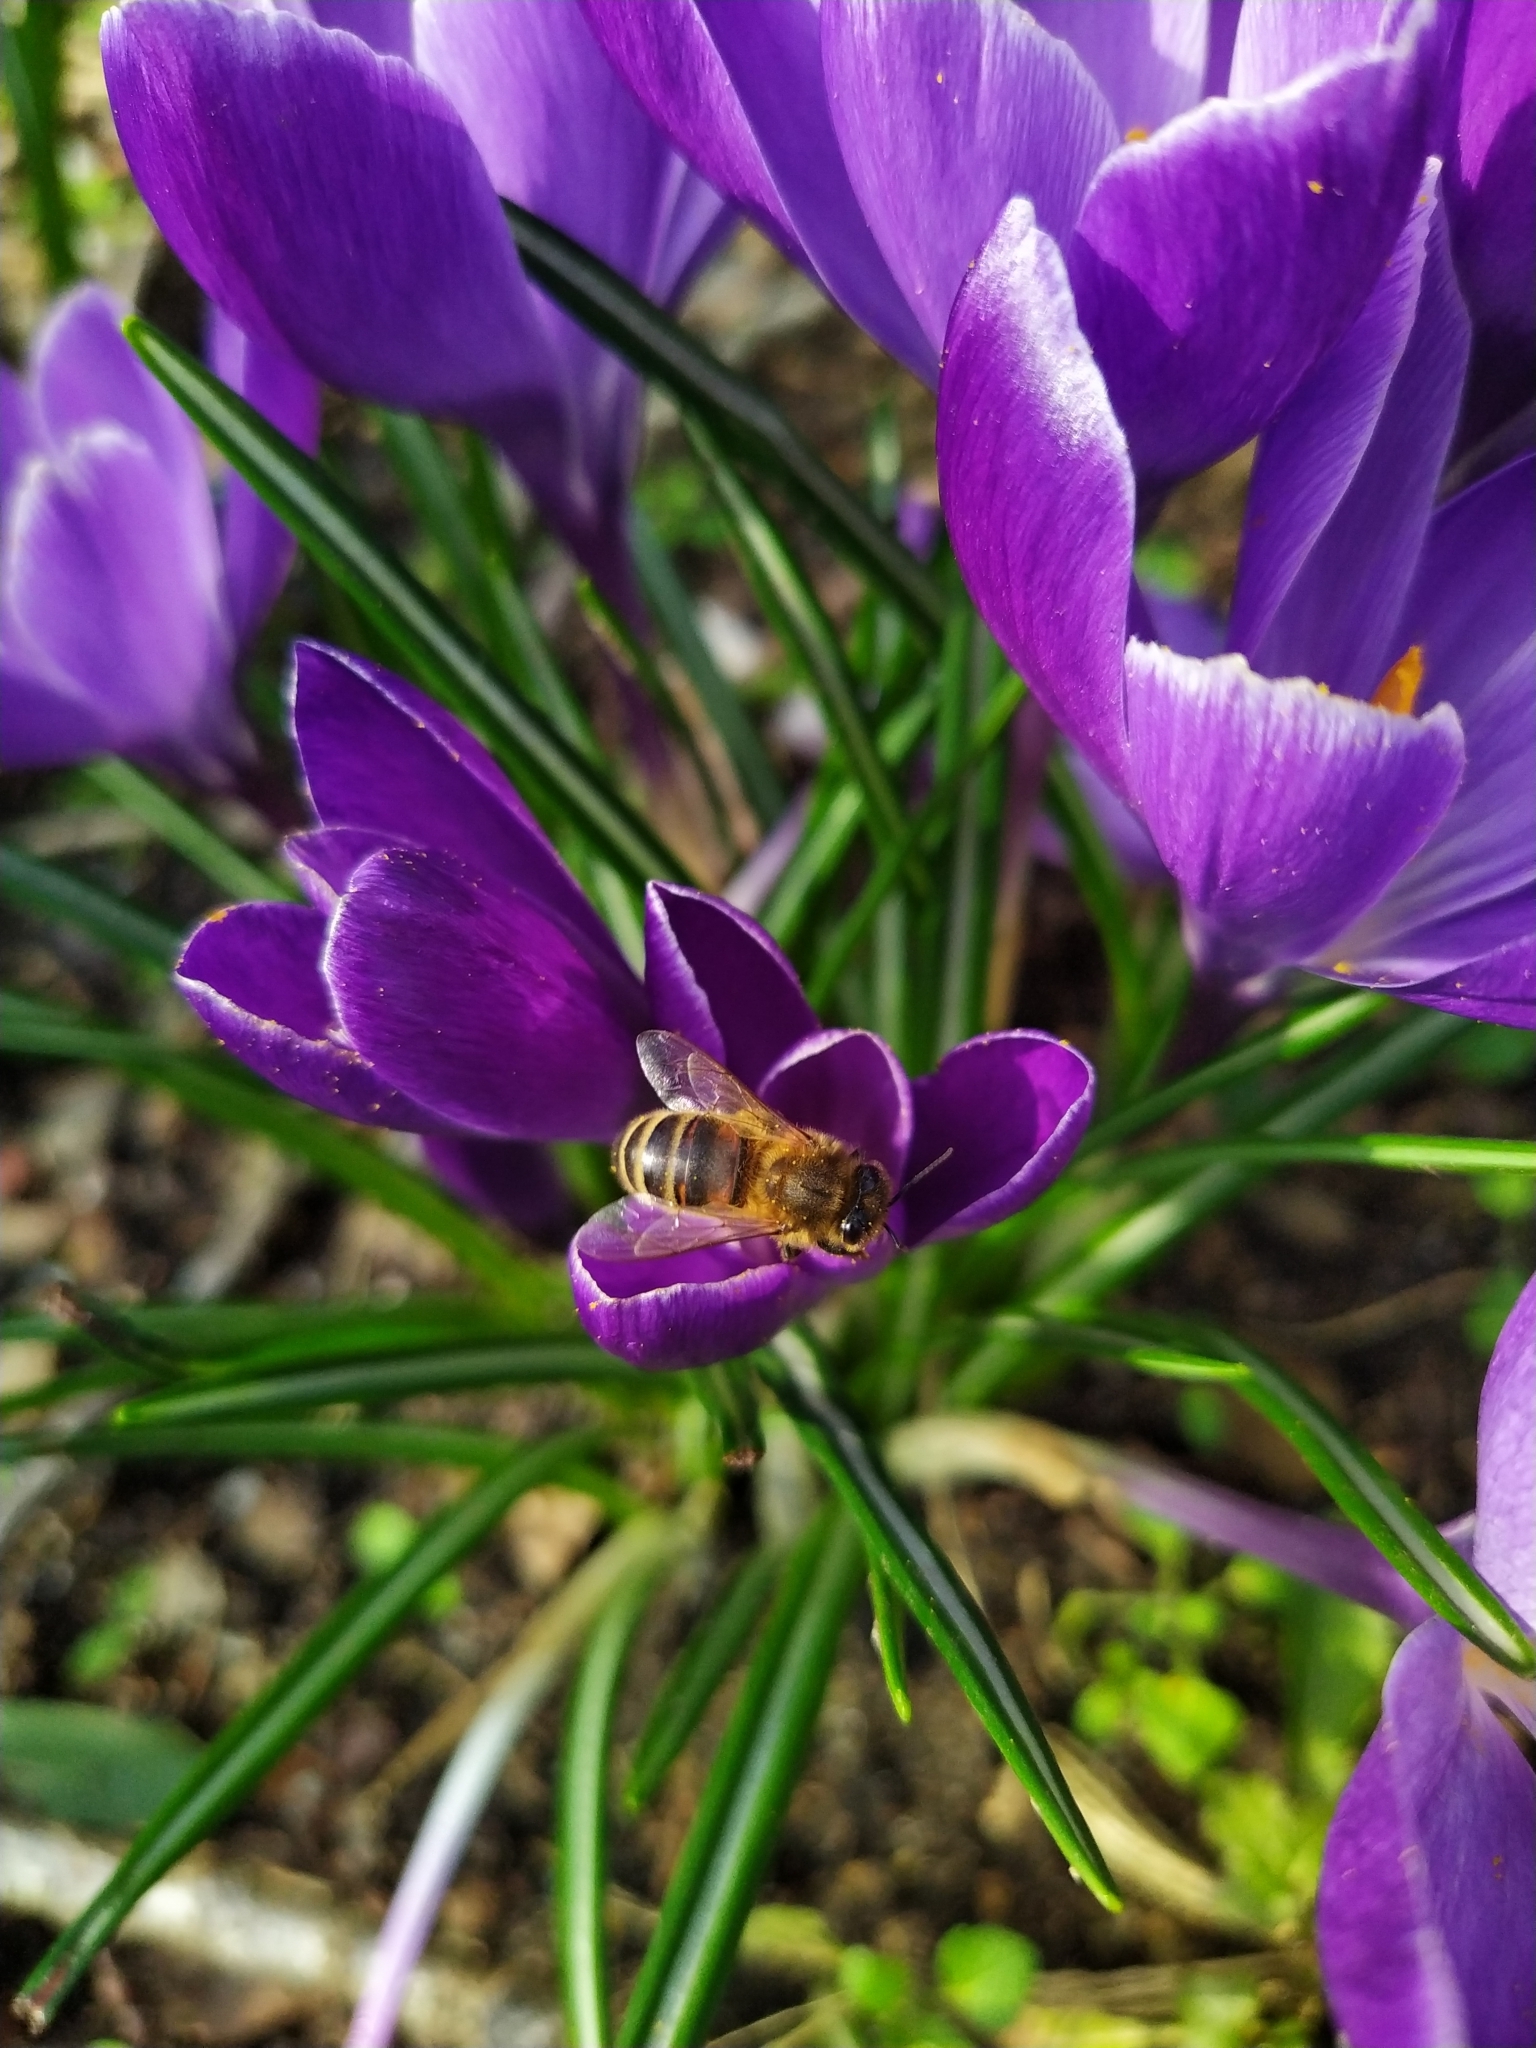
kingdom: Animalia
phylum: Arthropoda
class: Insecta
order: Hymenoptera
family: Apidae
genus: Apis
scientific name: Apis mellifera
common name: Honey bee
